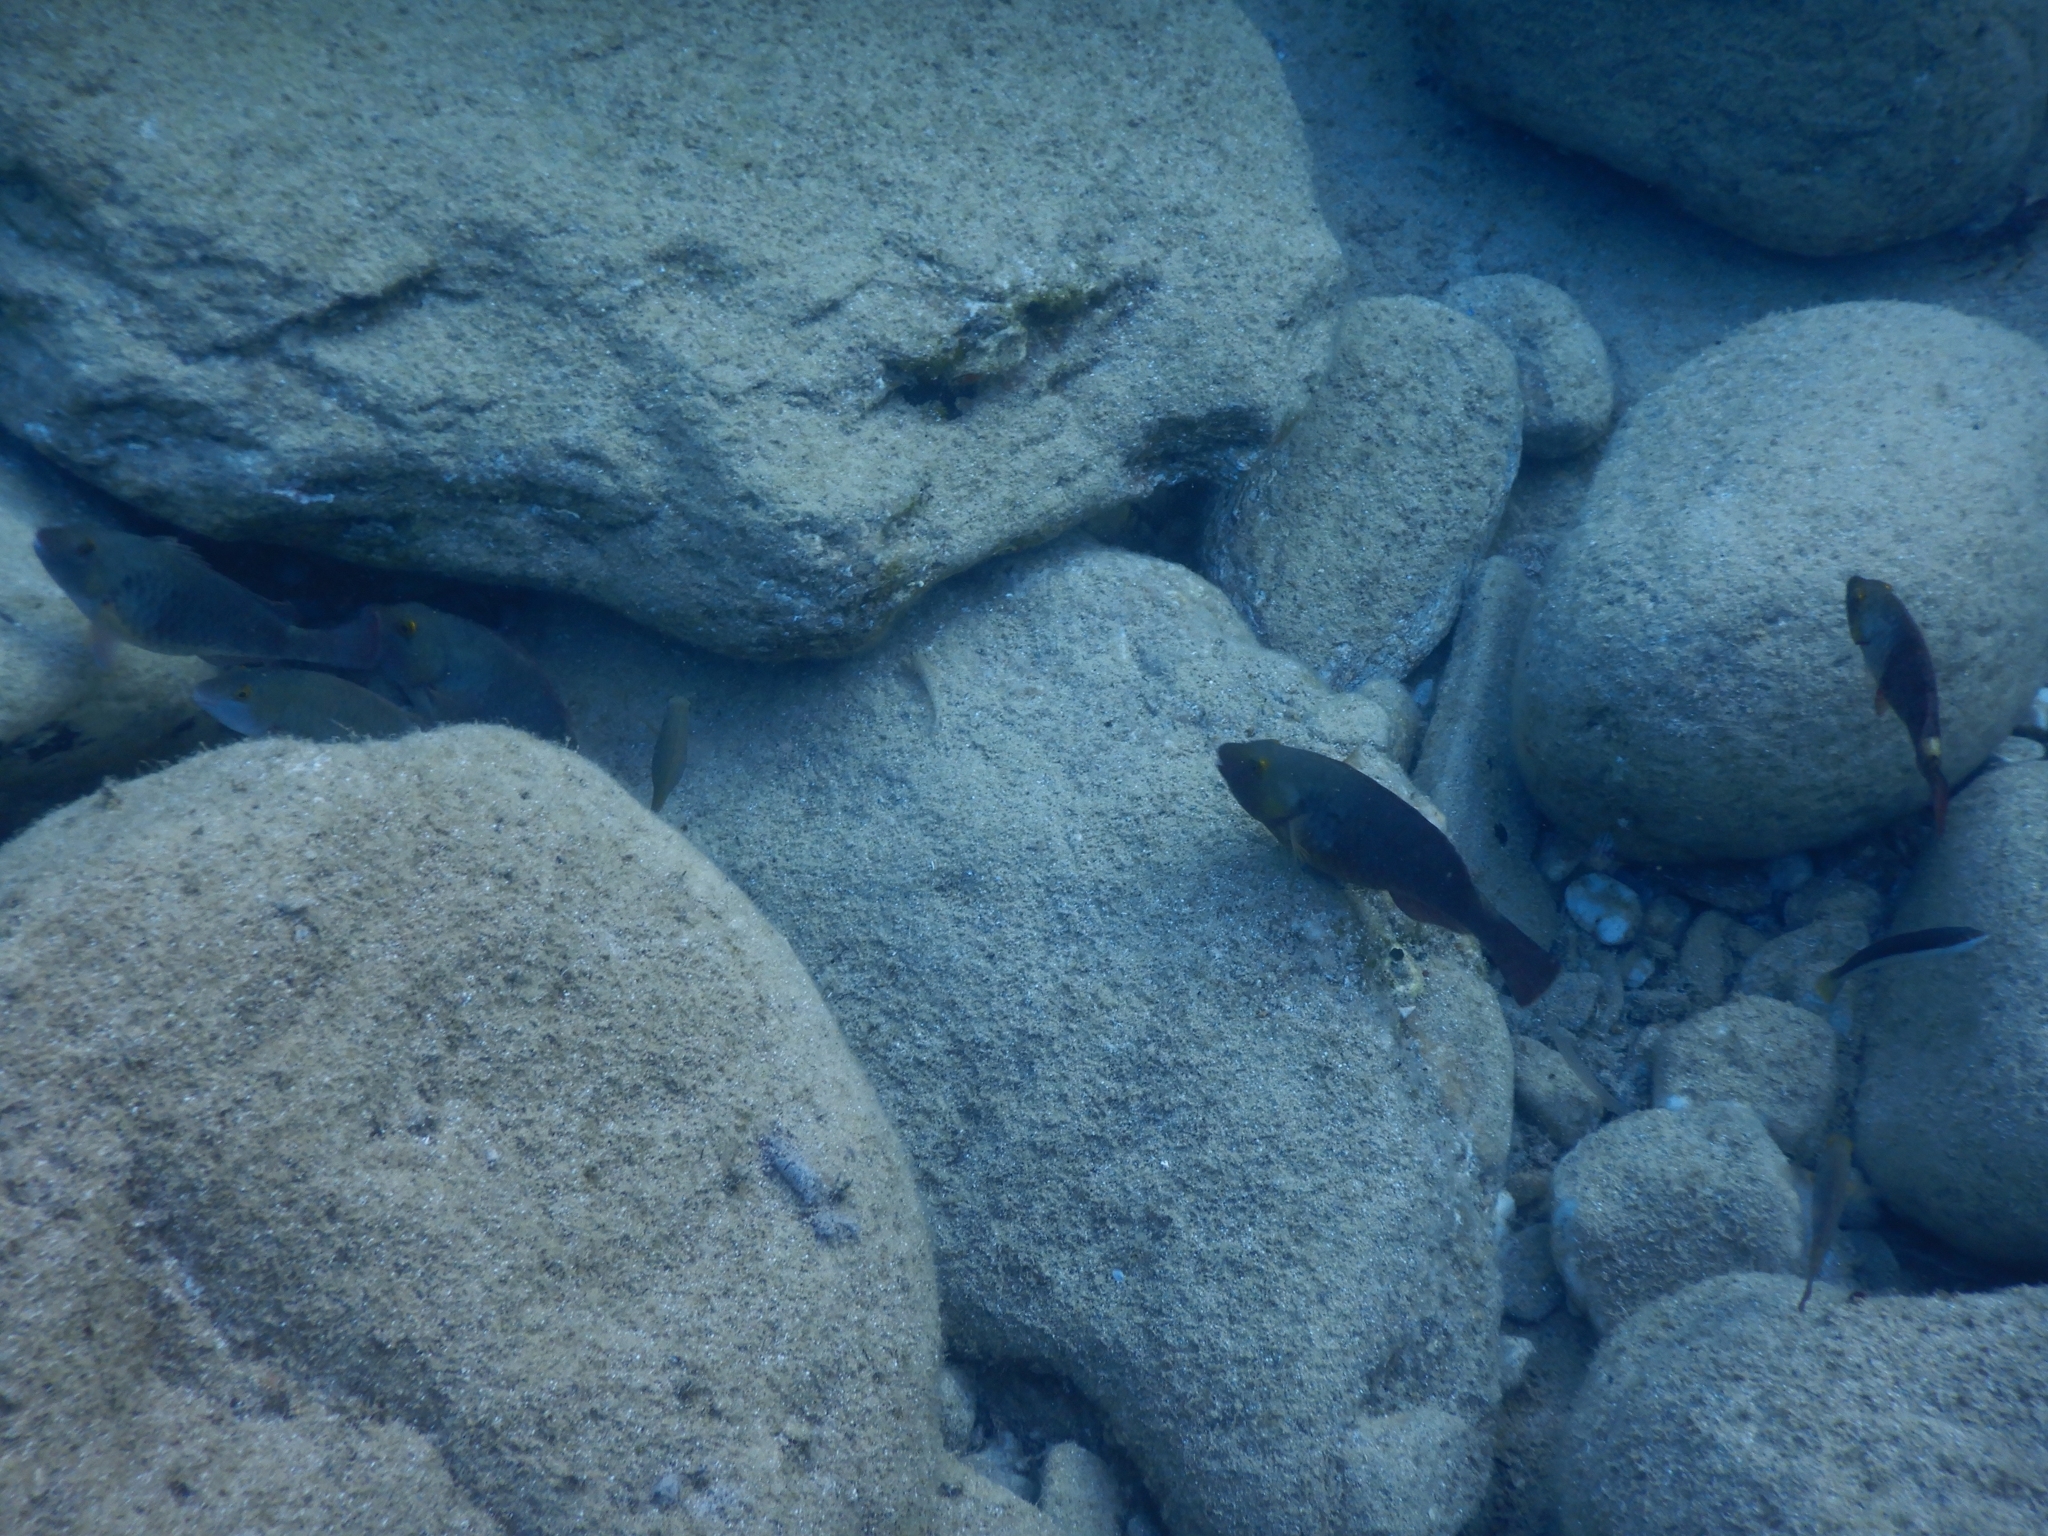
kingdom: Animalia
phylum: Chordata
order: Perciformes
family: Scaridae
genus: Sparisoma
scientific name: Sparisoma cretense
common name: Parrotfish
